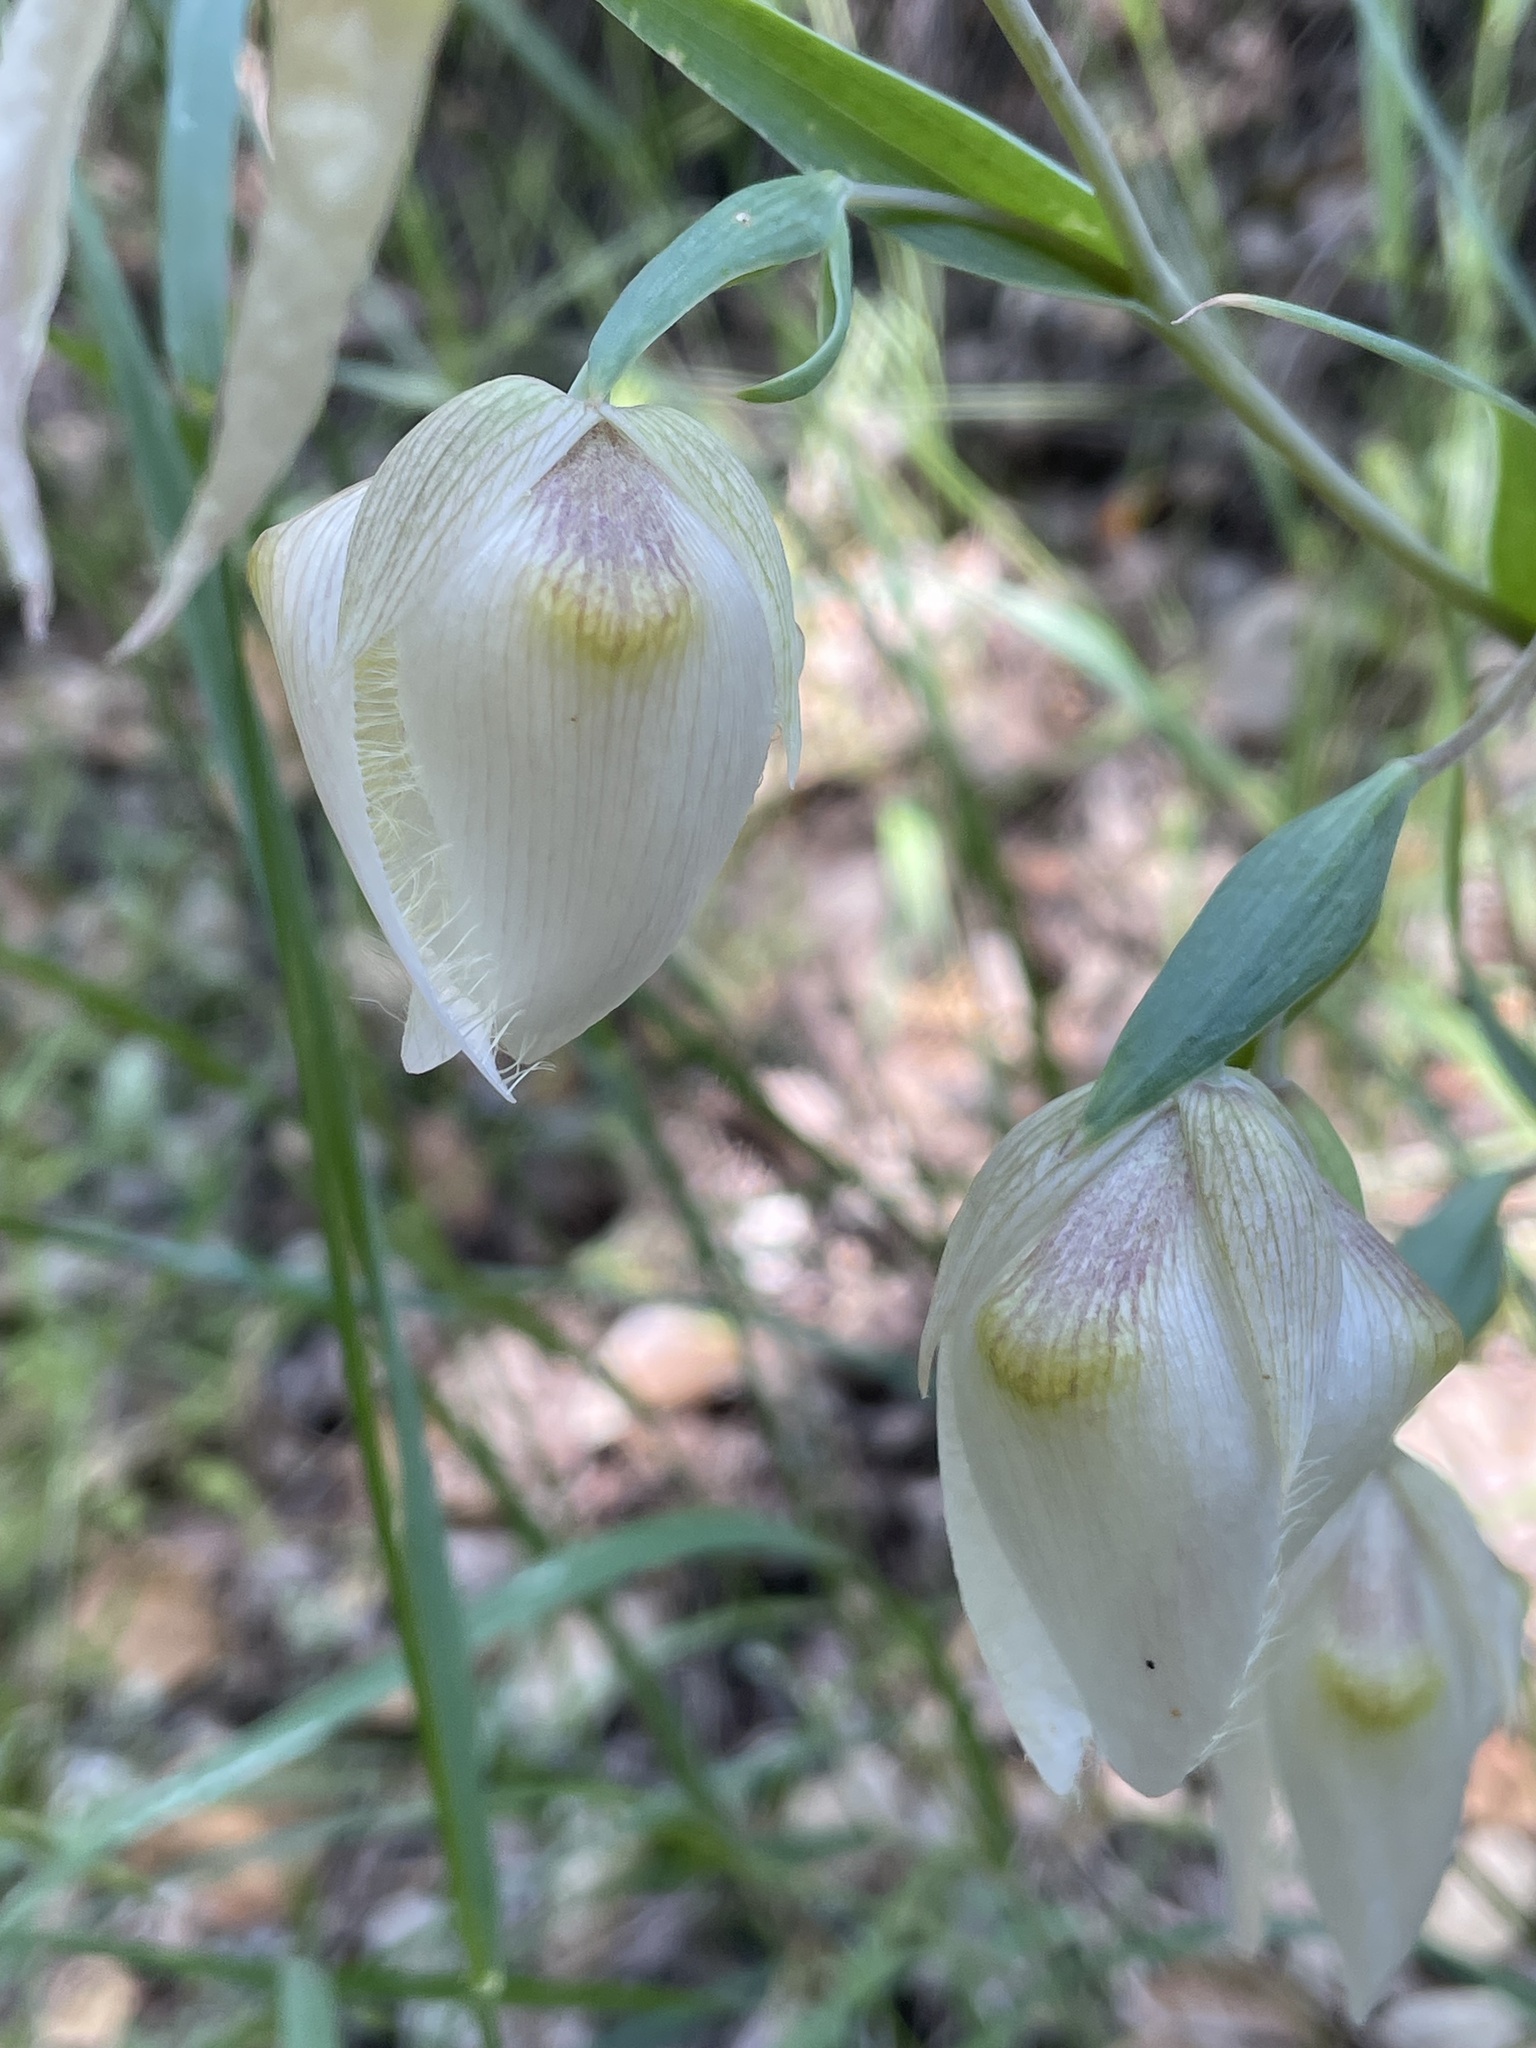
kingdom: Plantae
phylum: Tracheophyta
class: Liliopsida
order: Liliales
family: Liliaceae
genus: Calochortus
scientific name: Calochortus albus
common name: Fairy-lantern
